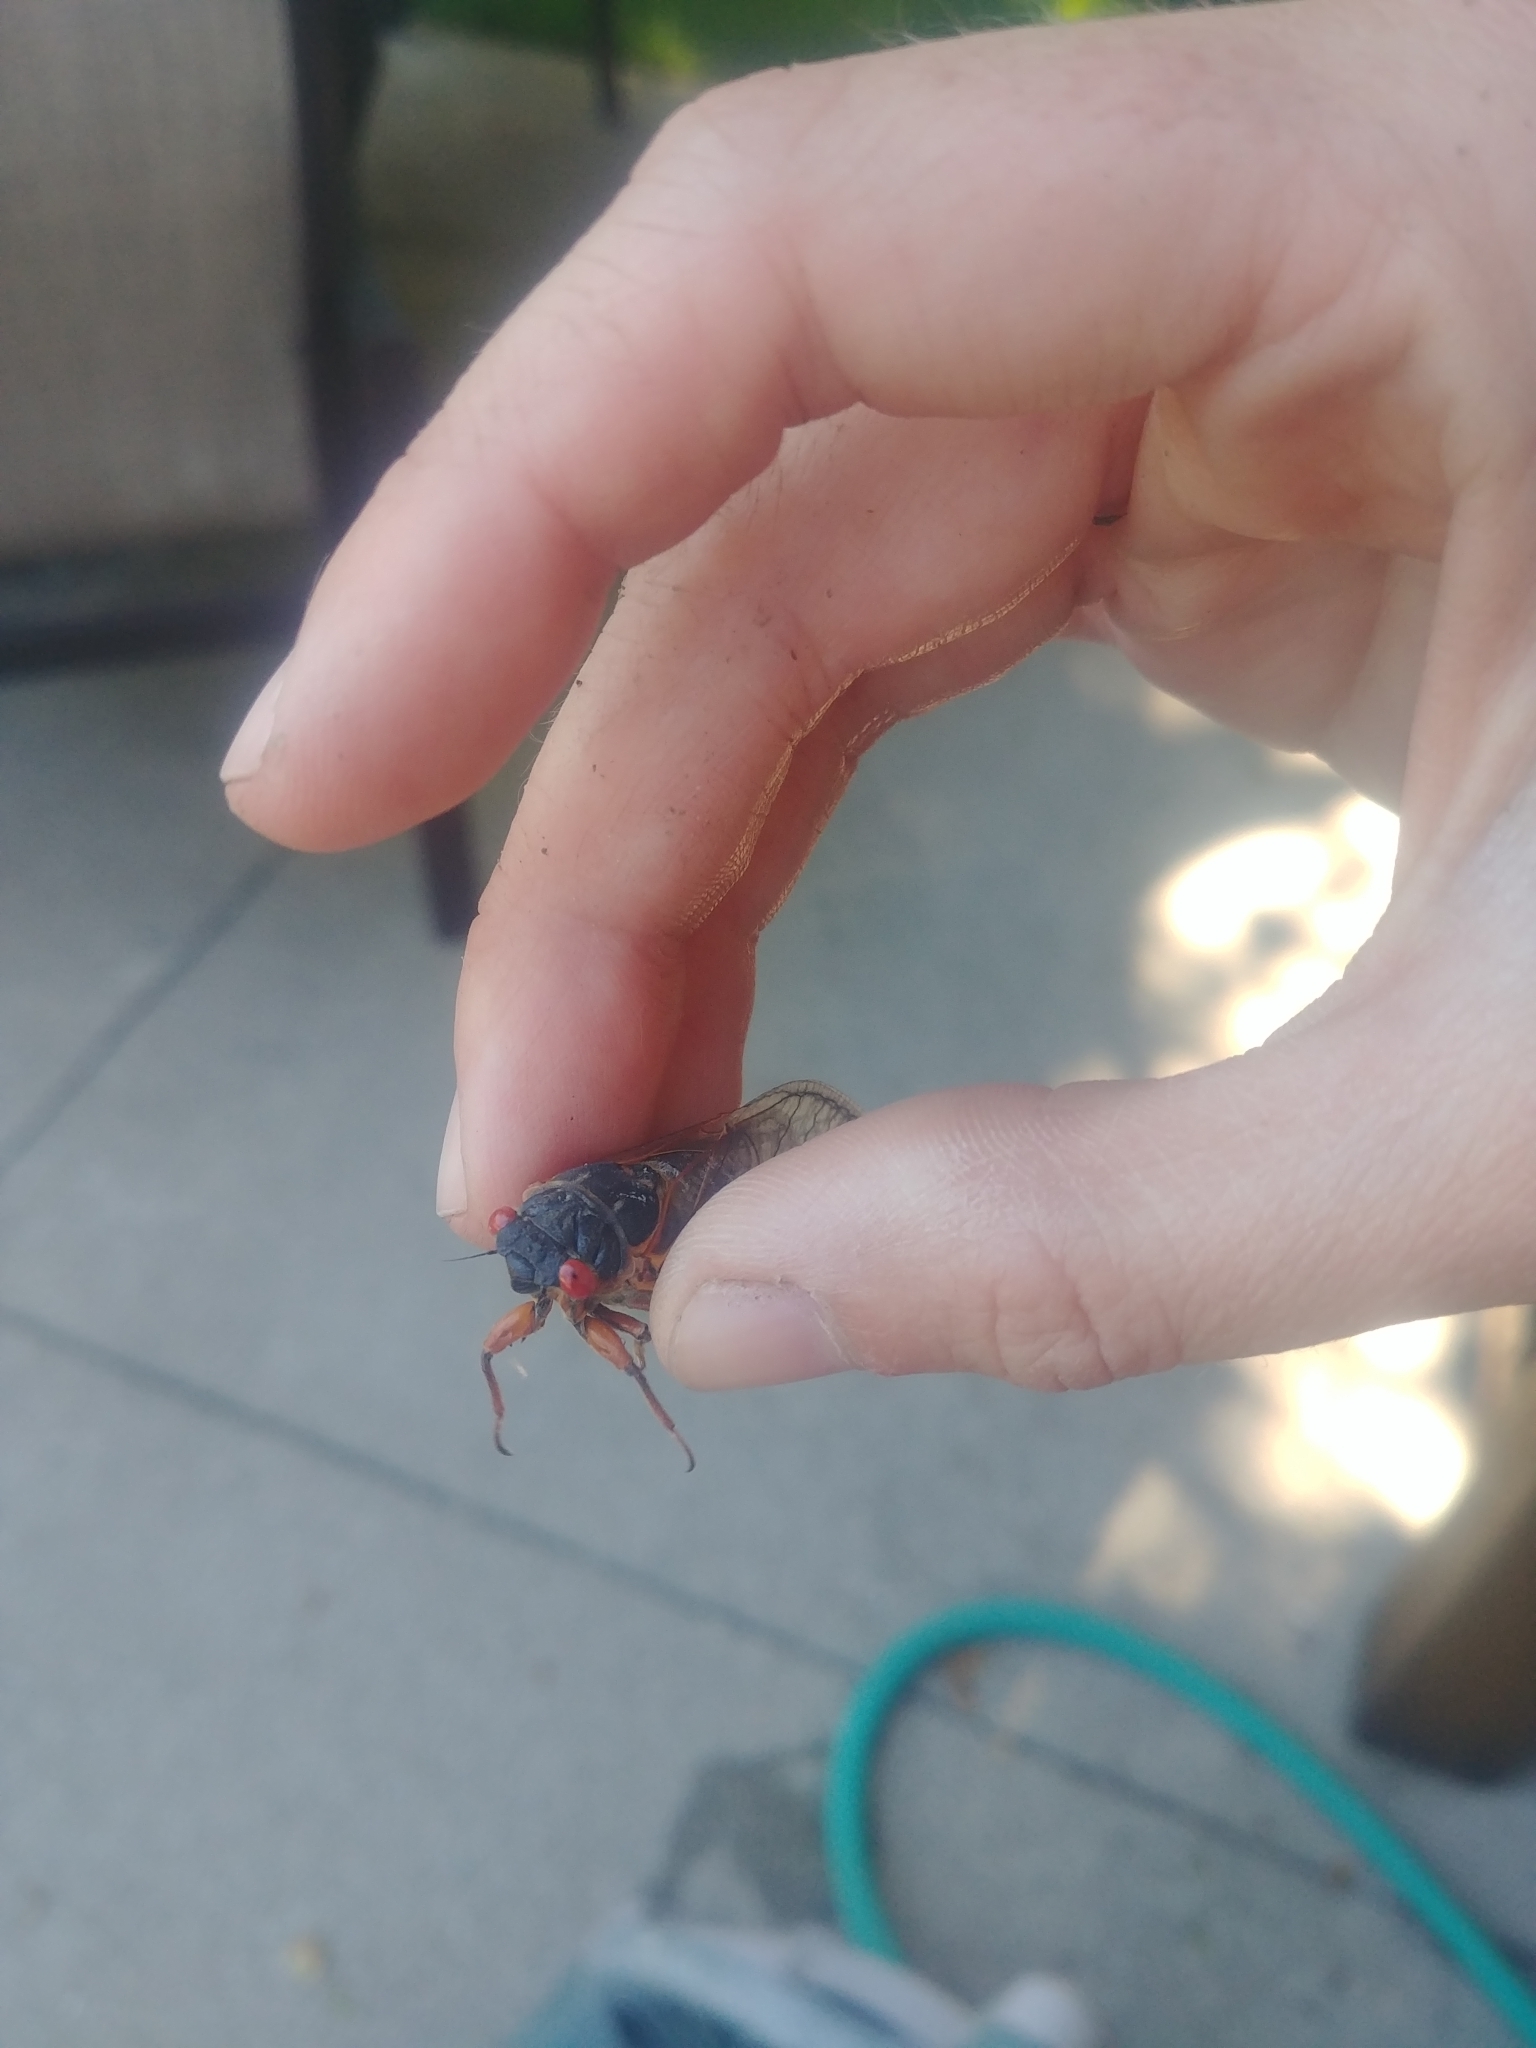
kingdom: Animalia
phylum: Arthropoda
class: Insecta
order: Hemiptera
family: Cicadidae
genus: Magicicada
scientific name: Magicicada septendecim
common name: Periodical cicada
